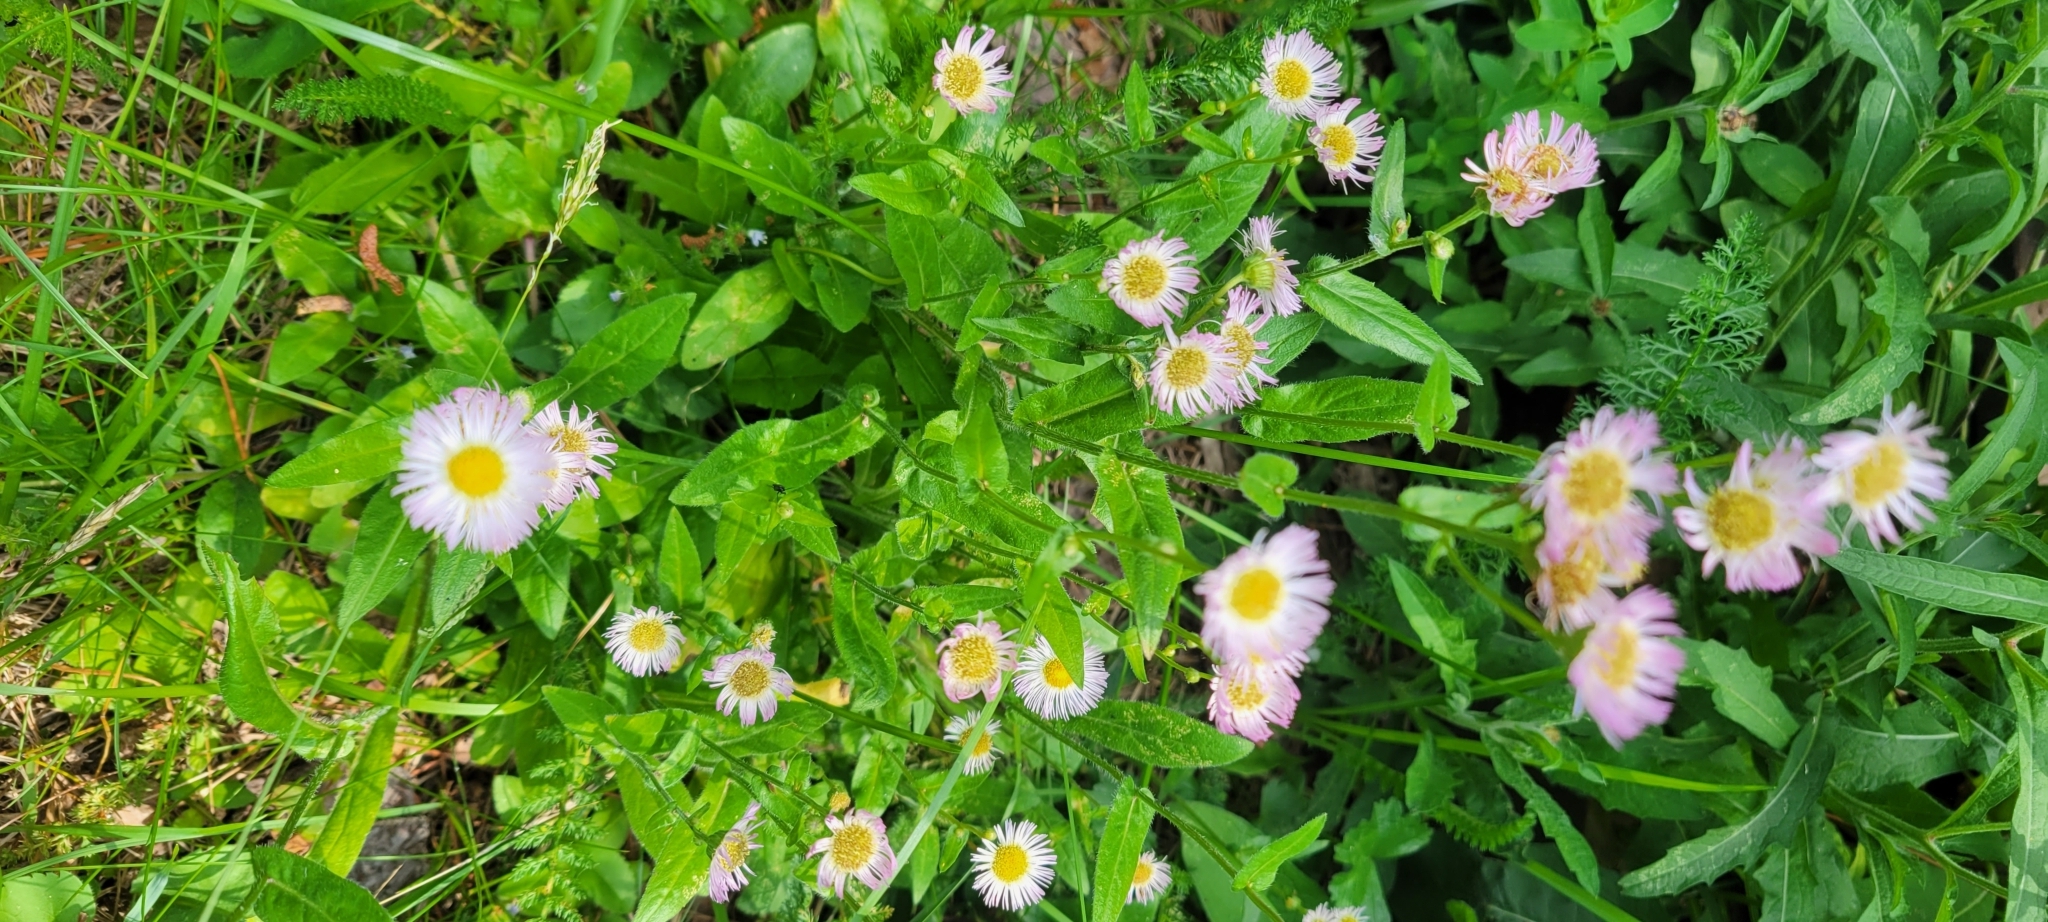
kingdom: Plantae
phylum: Tracheophyta
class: Magnoliopsida
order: Asterales
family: Asteraceae
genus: Erigeron
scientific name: Erigeron philadelphicus
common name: Robin's-plantain
